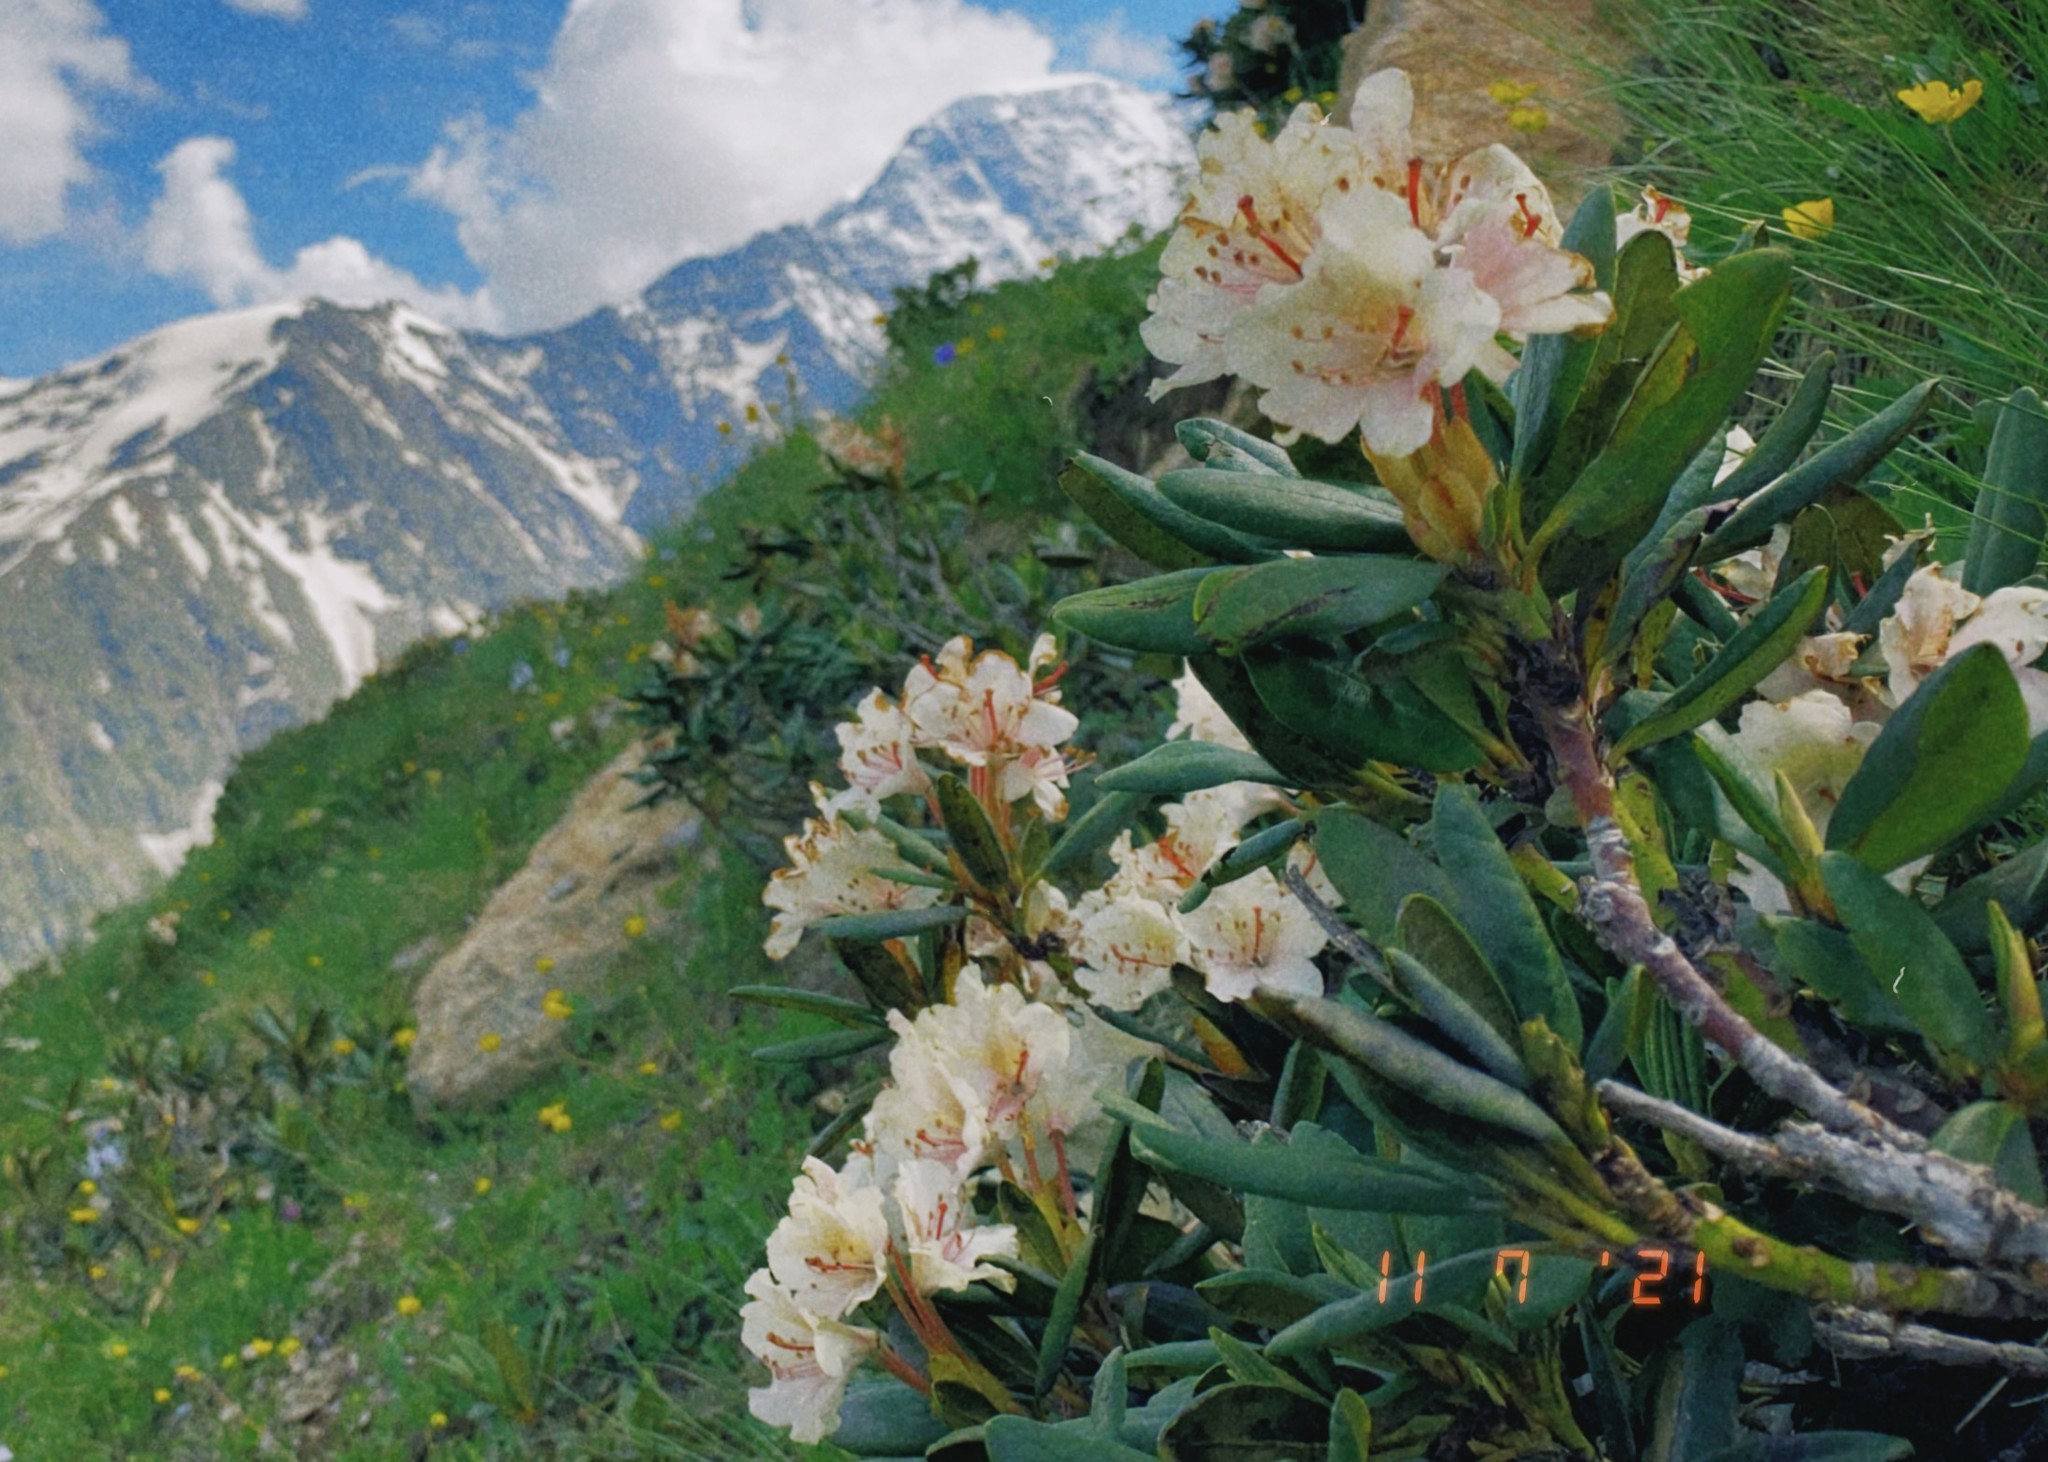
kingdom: Plantae
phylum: Tracheophyta
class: Magnoliopsida
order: Ericales
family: Ericaceae
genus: Rhododendron
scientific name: Rhododendron caucasicum
